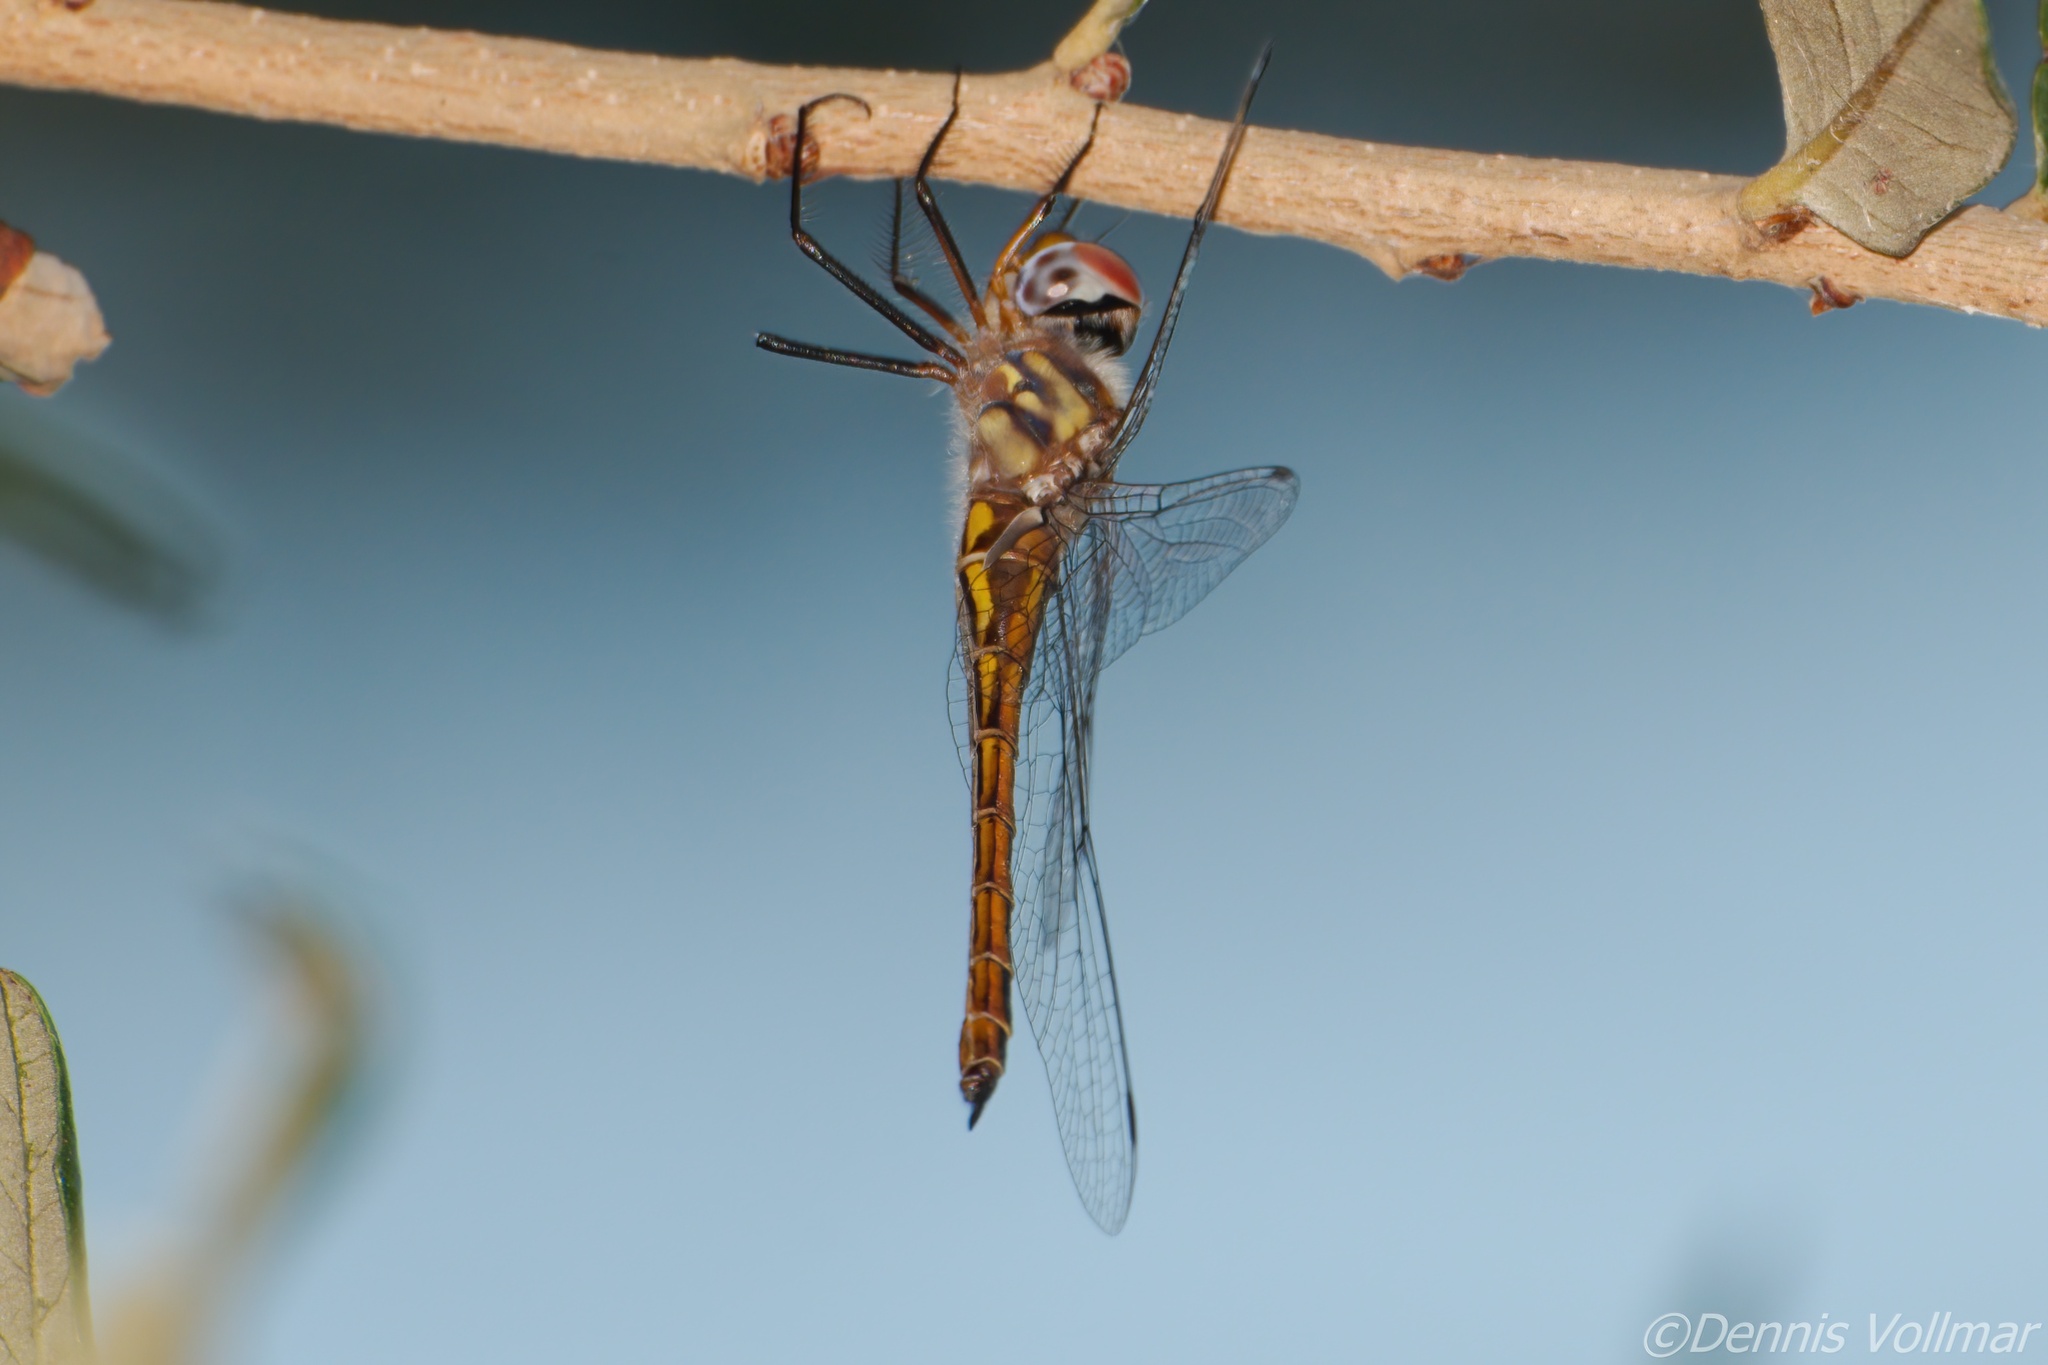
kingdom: Animalia
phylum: Arthropoda
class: Insecta
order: Odonata
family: Corduliidae
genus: Epitheca
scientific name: Epitheca sepia
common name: Sepia baskettail
